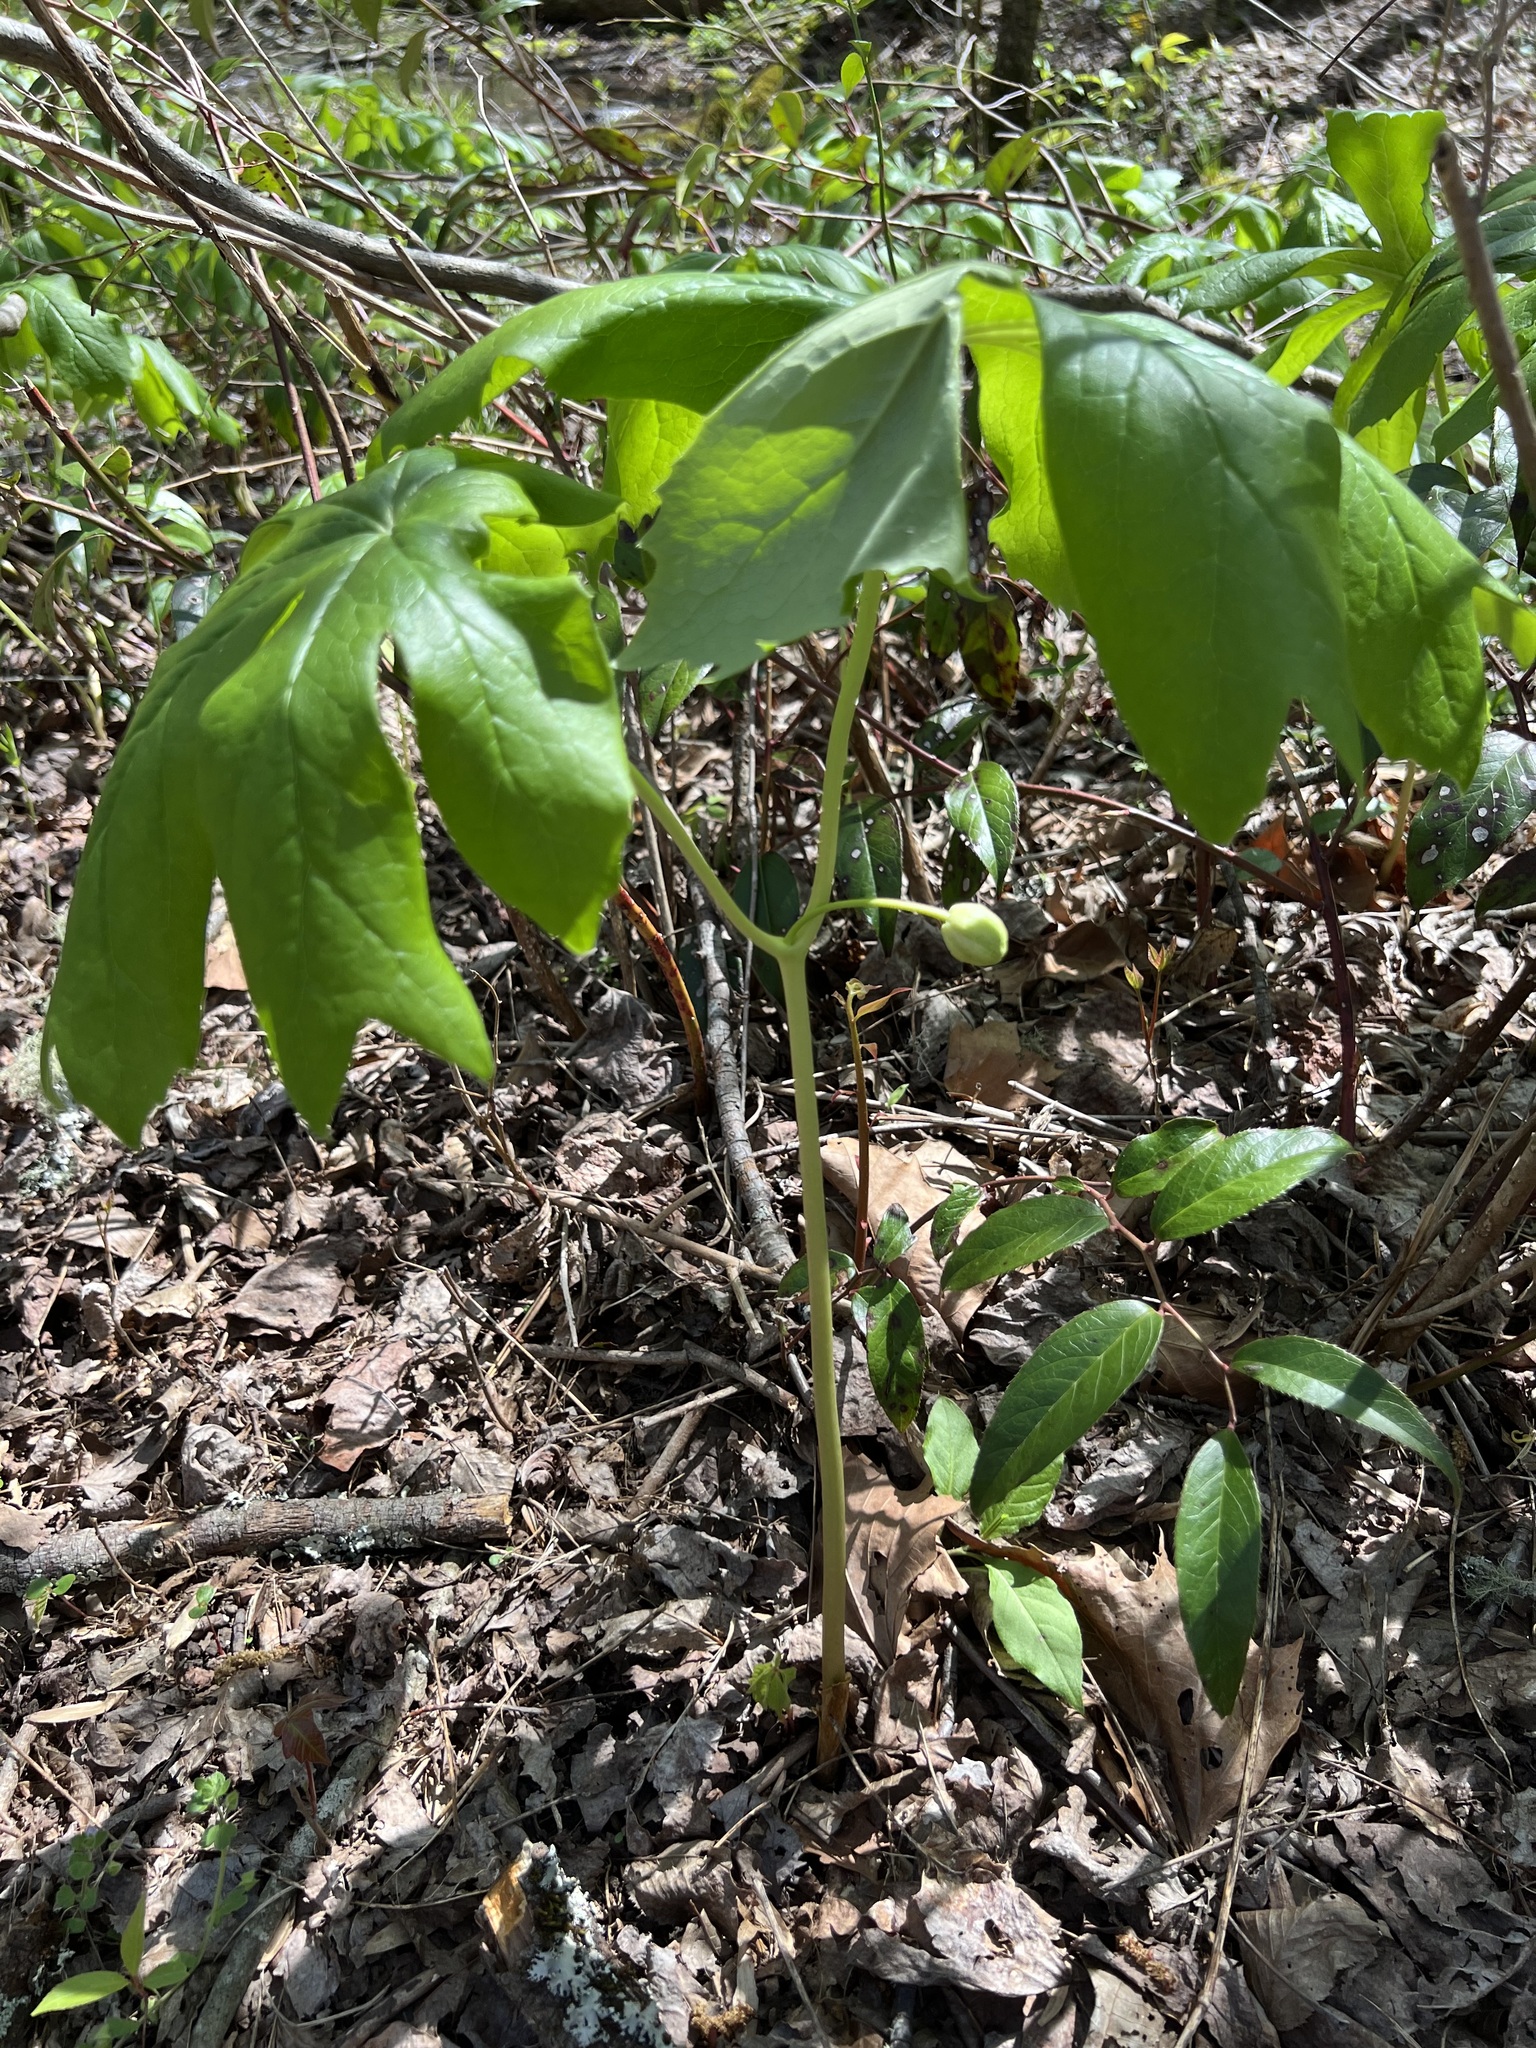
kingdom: Plantae
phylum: Tracheophyta
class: Magnoliopsida
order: Ranunculales
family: Berberidaceae
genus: Podophyllum
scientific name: Podophyllum peltatum
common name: Wild mandrake
